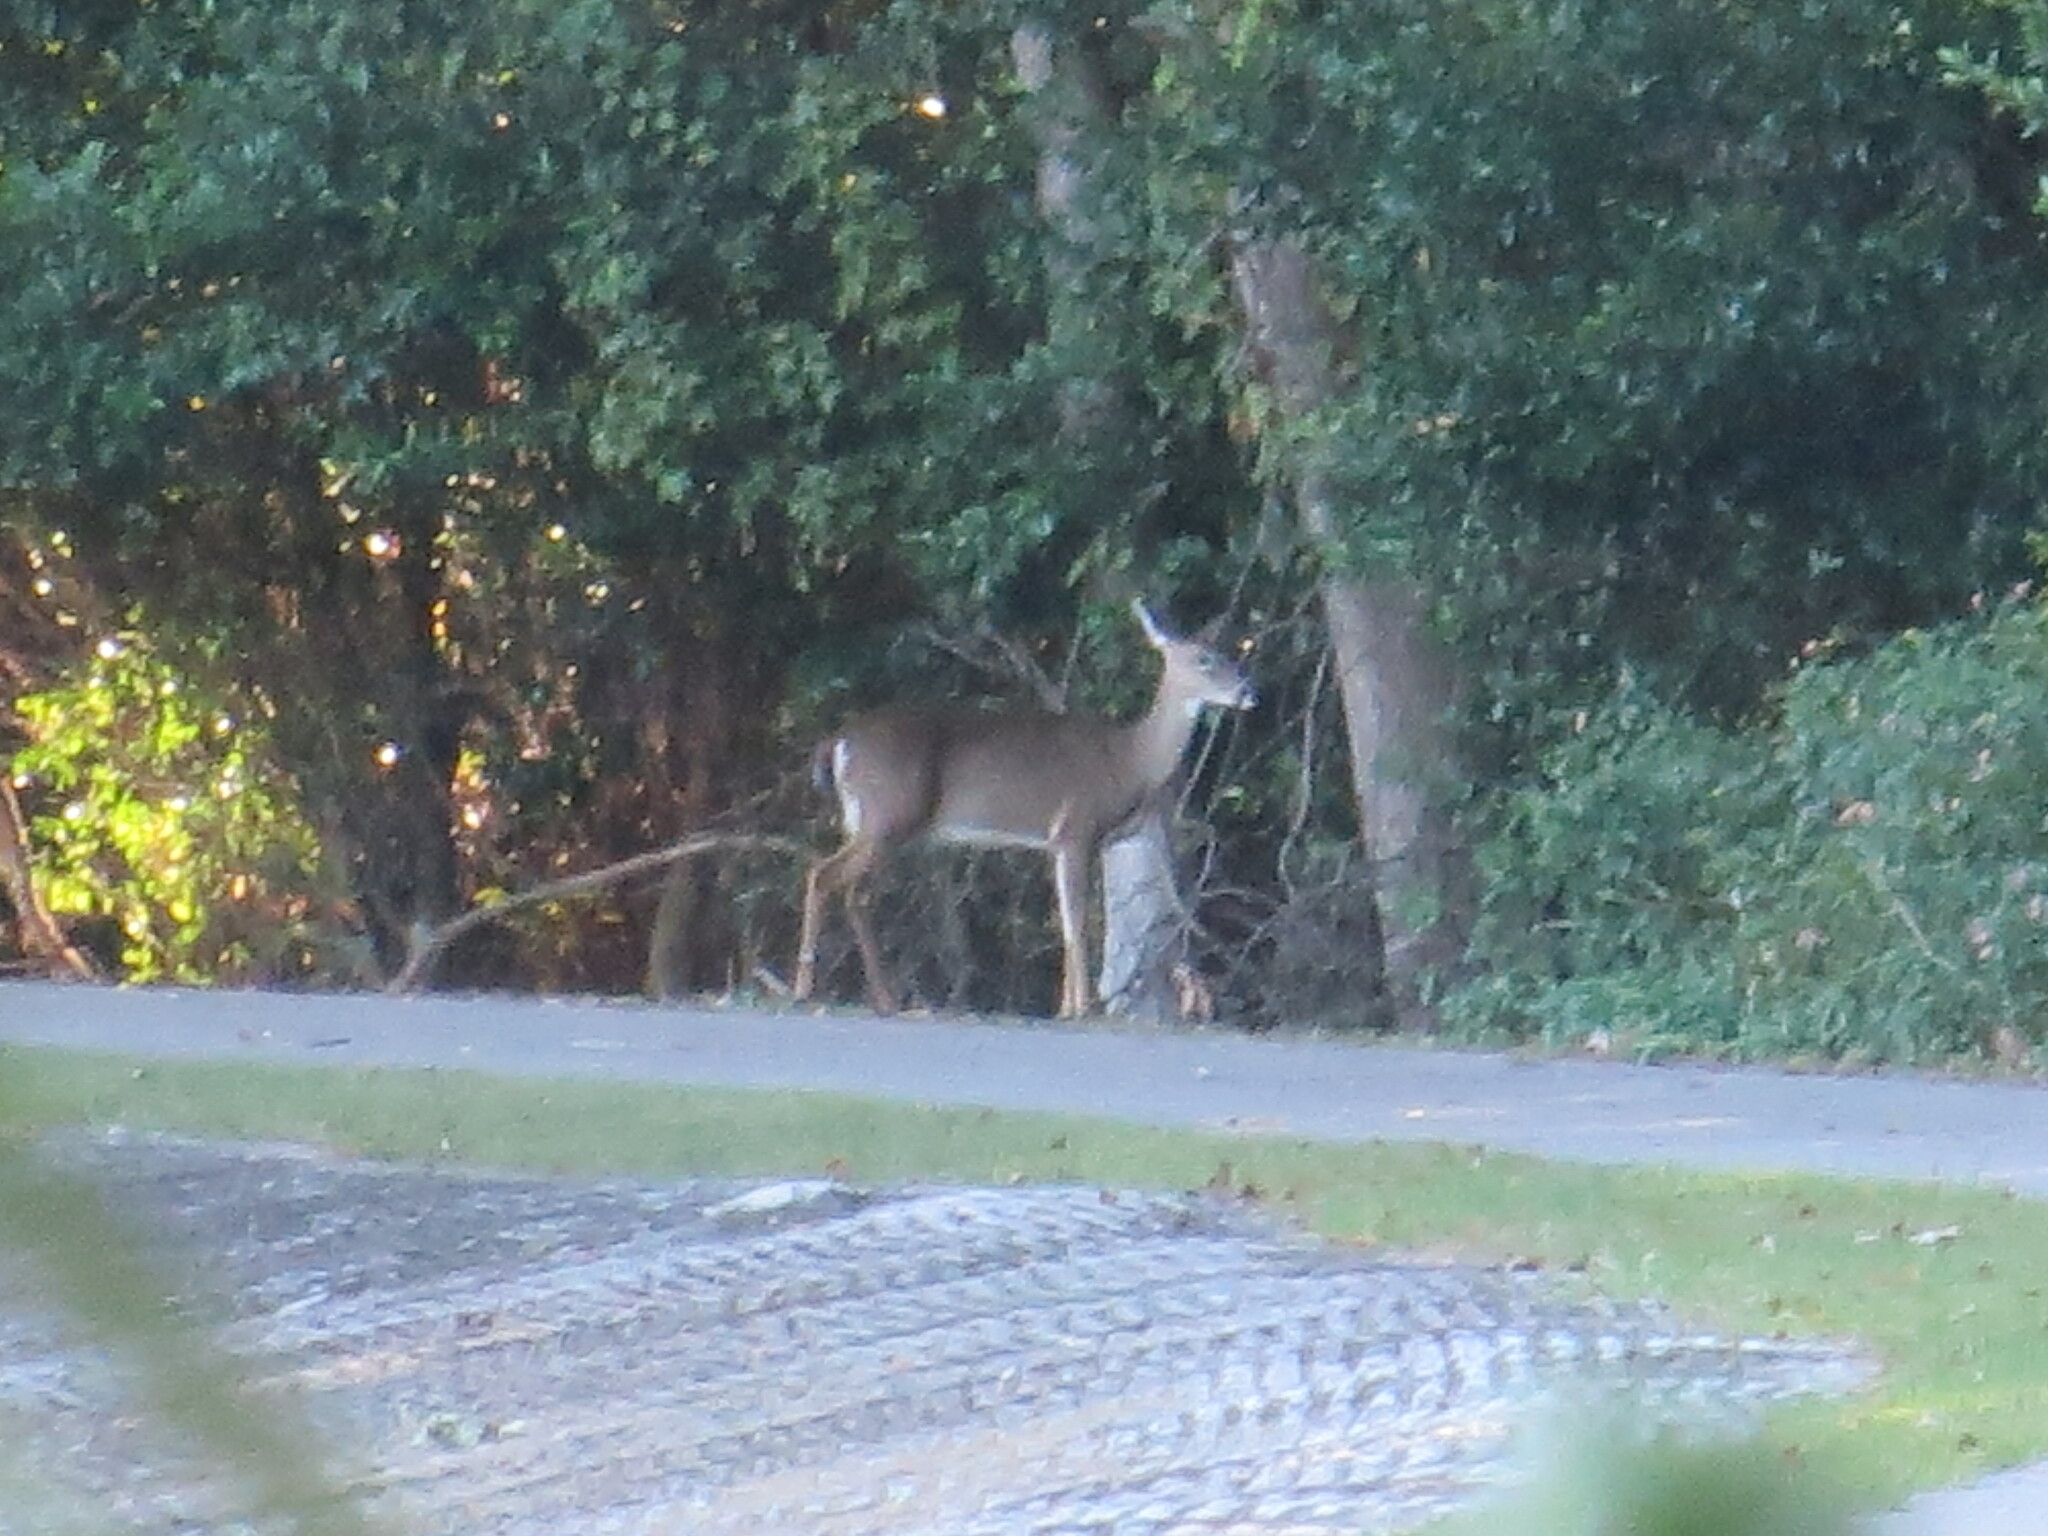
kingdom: Animalia
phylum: Chordata
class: Mammalia
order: Artiodactyla
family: Cervidae
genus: Odocoileus
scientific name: Odocoileus virginianus
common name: White-tailed deer
